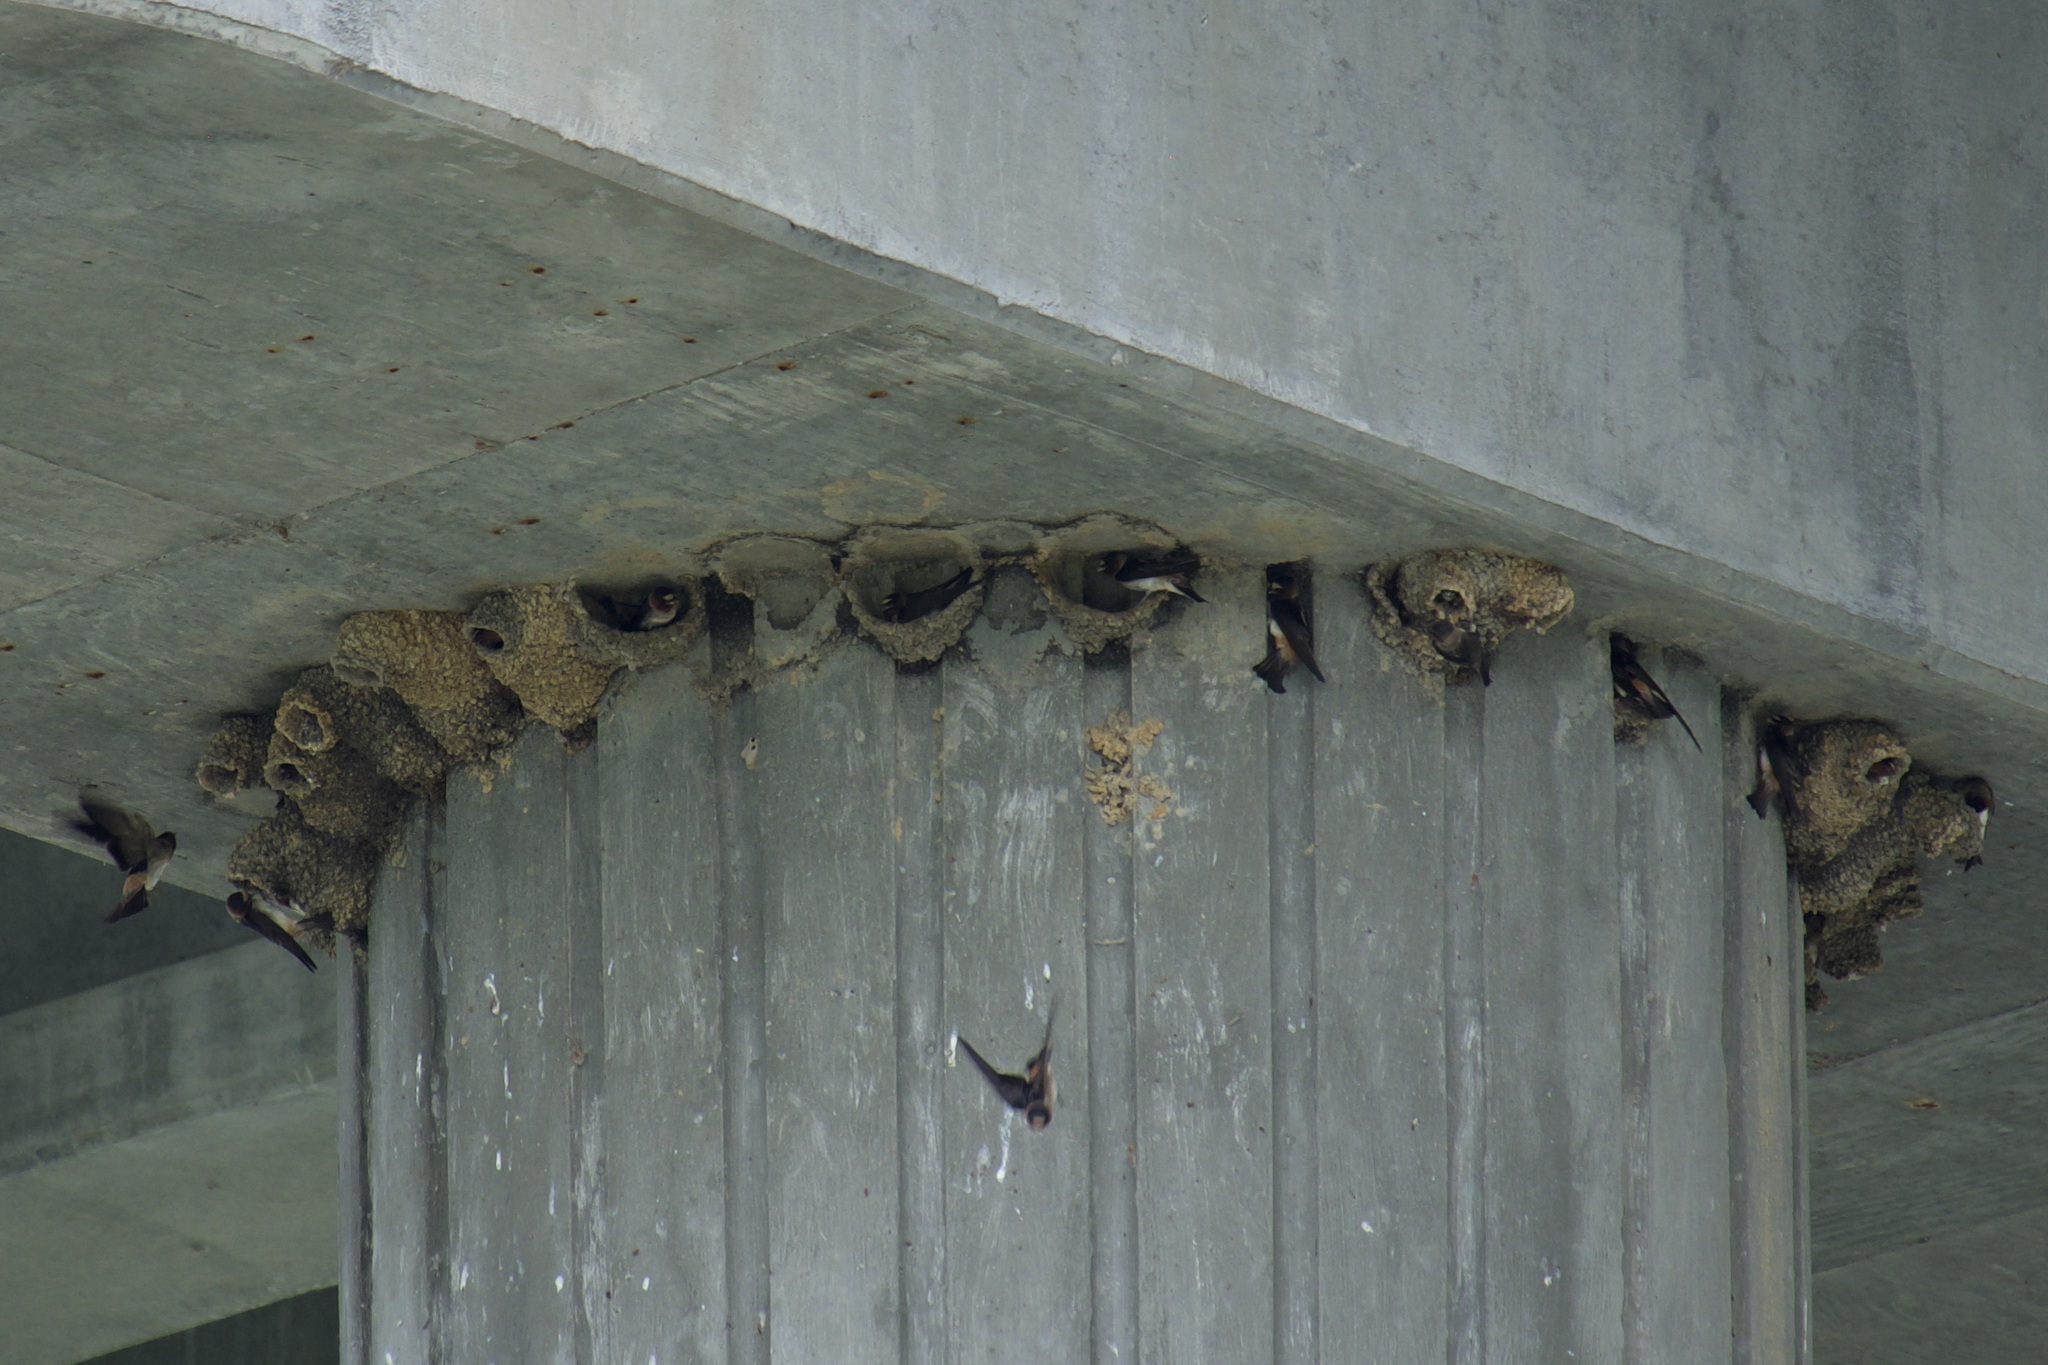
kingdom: Animalia
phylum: Chordata
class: Aves
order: Passeriformes
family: Hirundinidae
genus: Petrochelidon
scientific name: Petrochelidon pyrrhonota
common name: American cliff swallow
